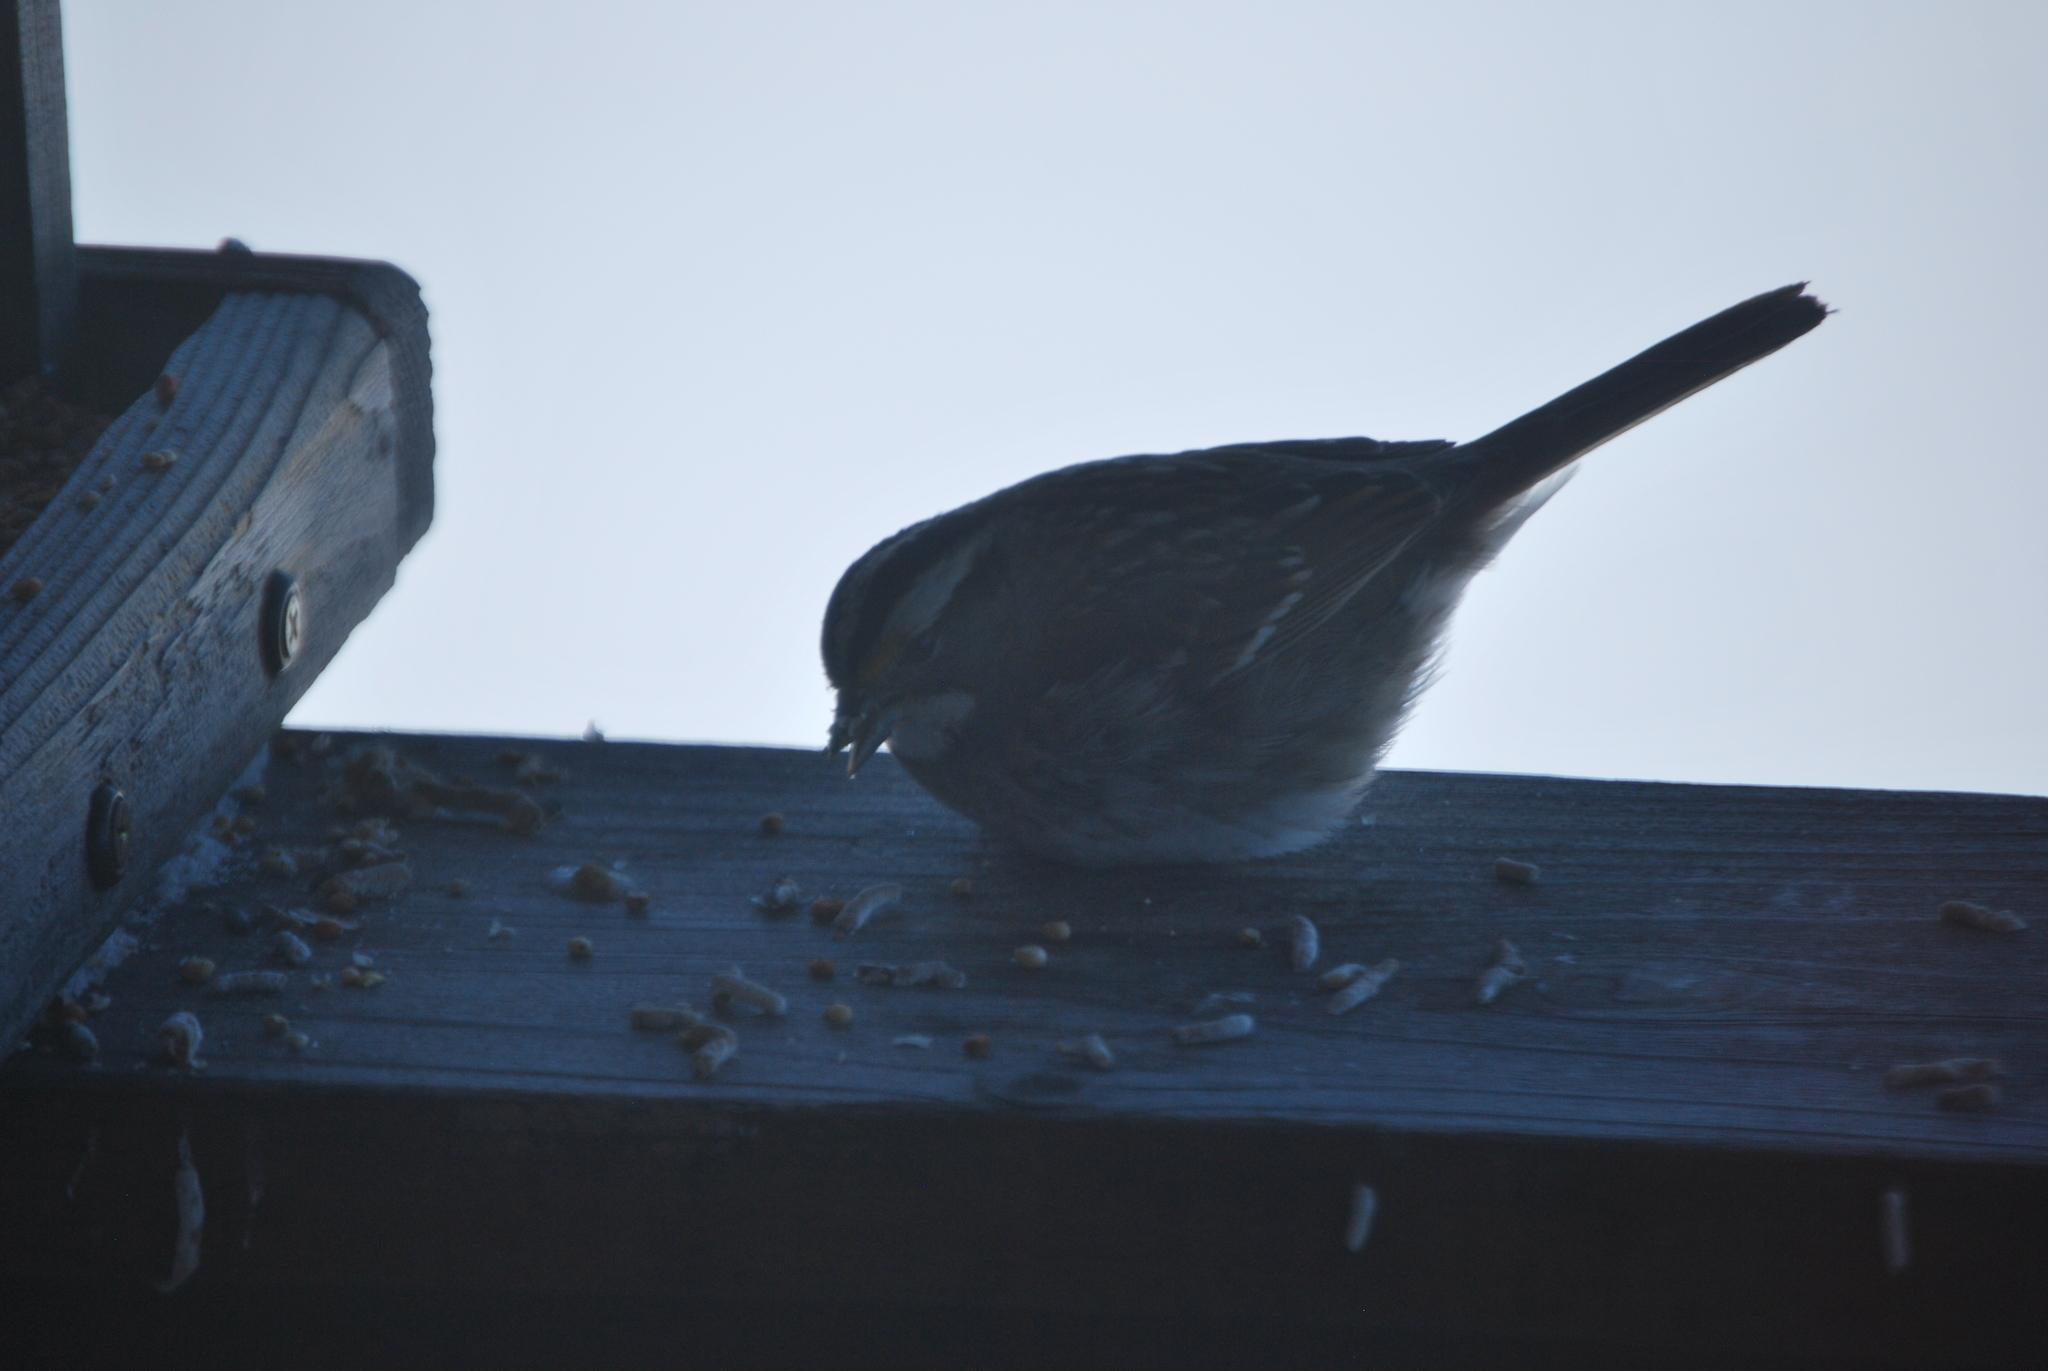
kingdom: Animalia
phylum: Chordata
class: Aves
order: Passeriformes
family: Passerellidae
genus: Zonotrichia
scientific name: Zonotrichia albicollis
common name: White-throated sparrow
